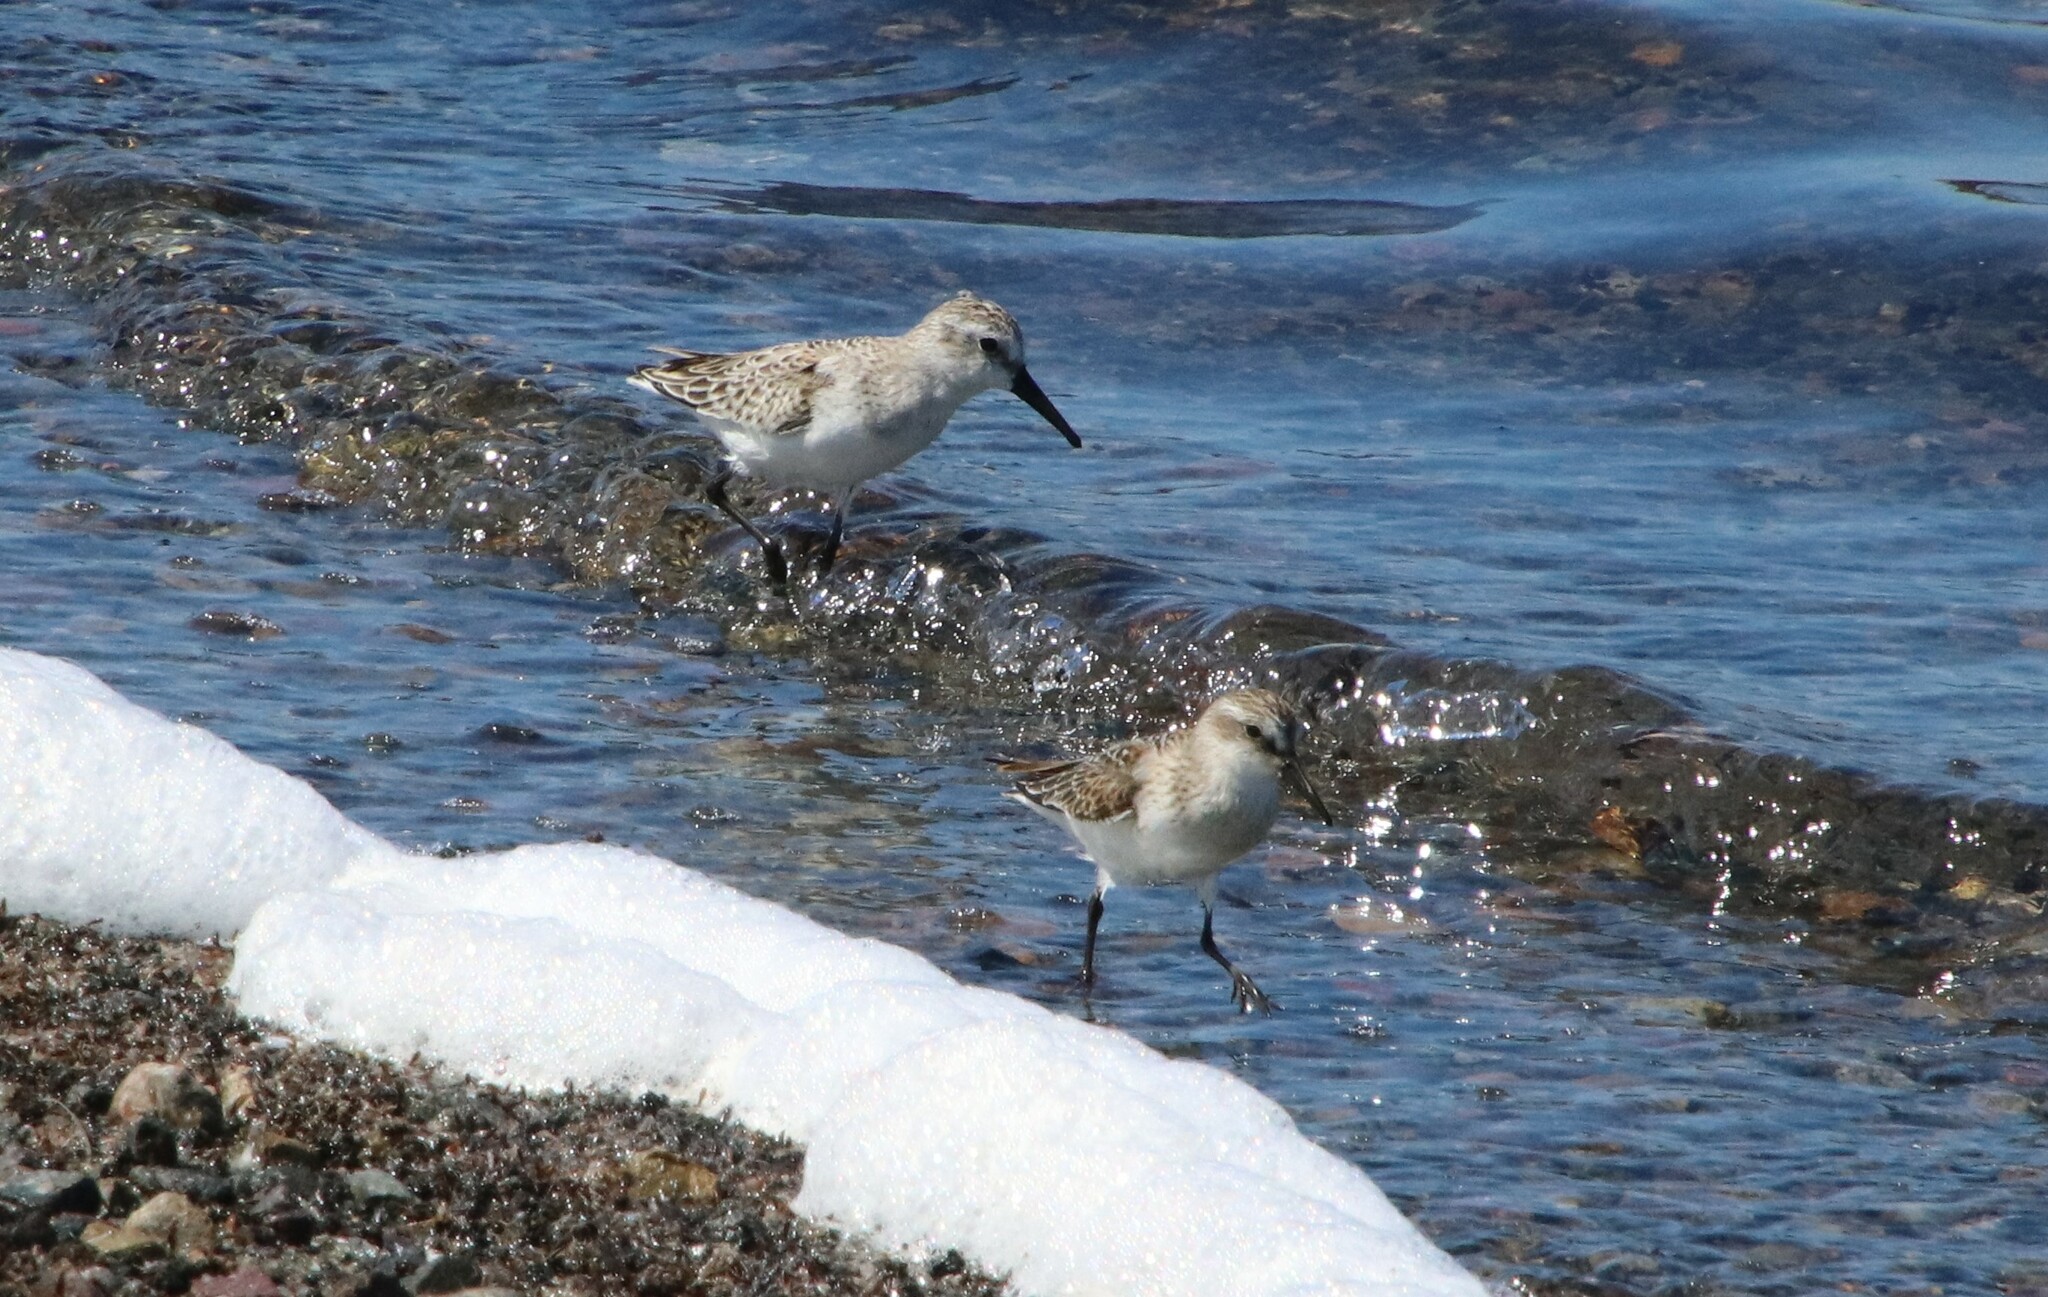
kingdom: Animalia
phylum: Chordata
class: Aves
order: Charadriiformes
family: Scolopacidae
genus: Calidris
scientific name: Calidris mauri
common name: Western sandpiper
